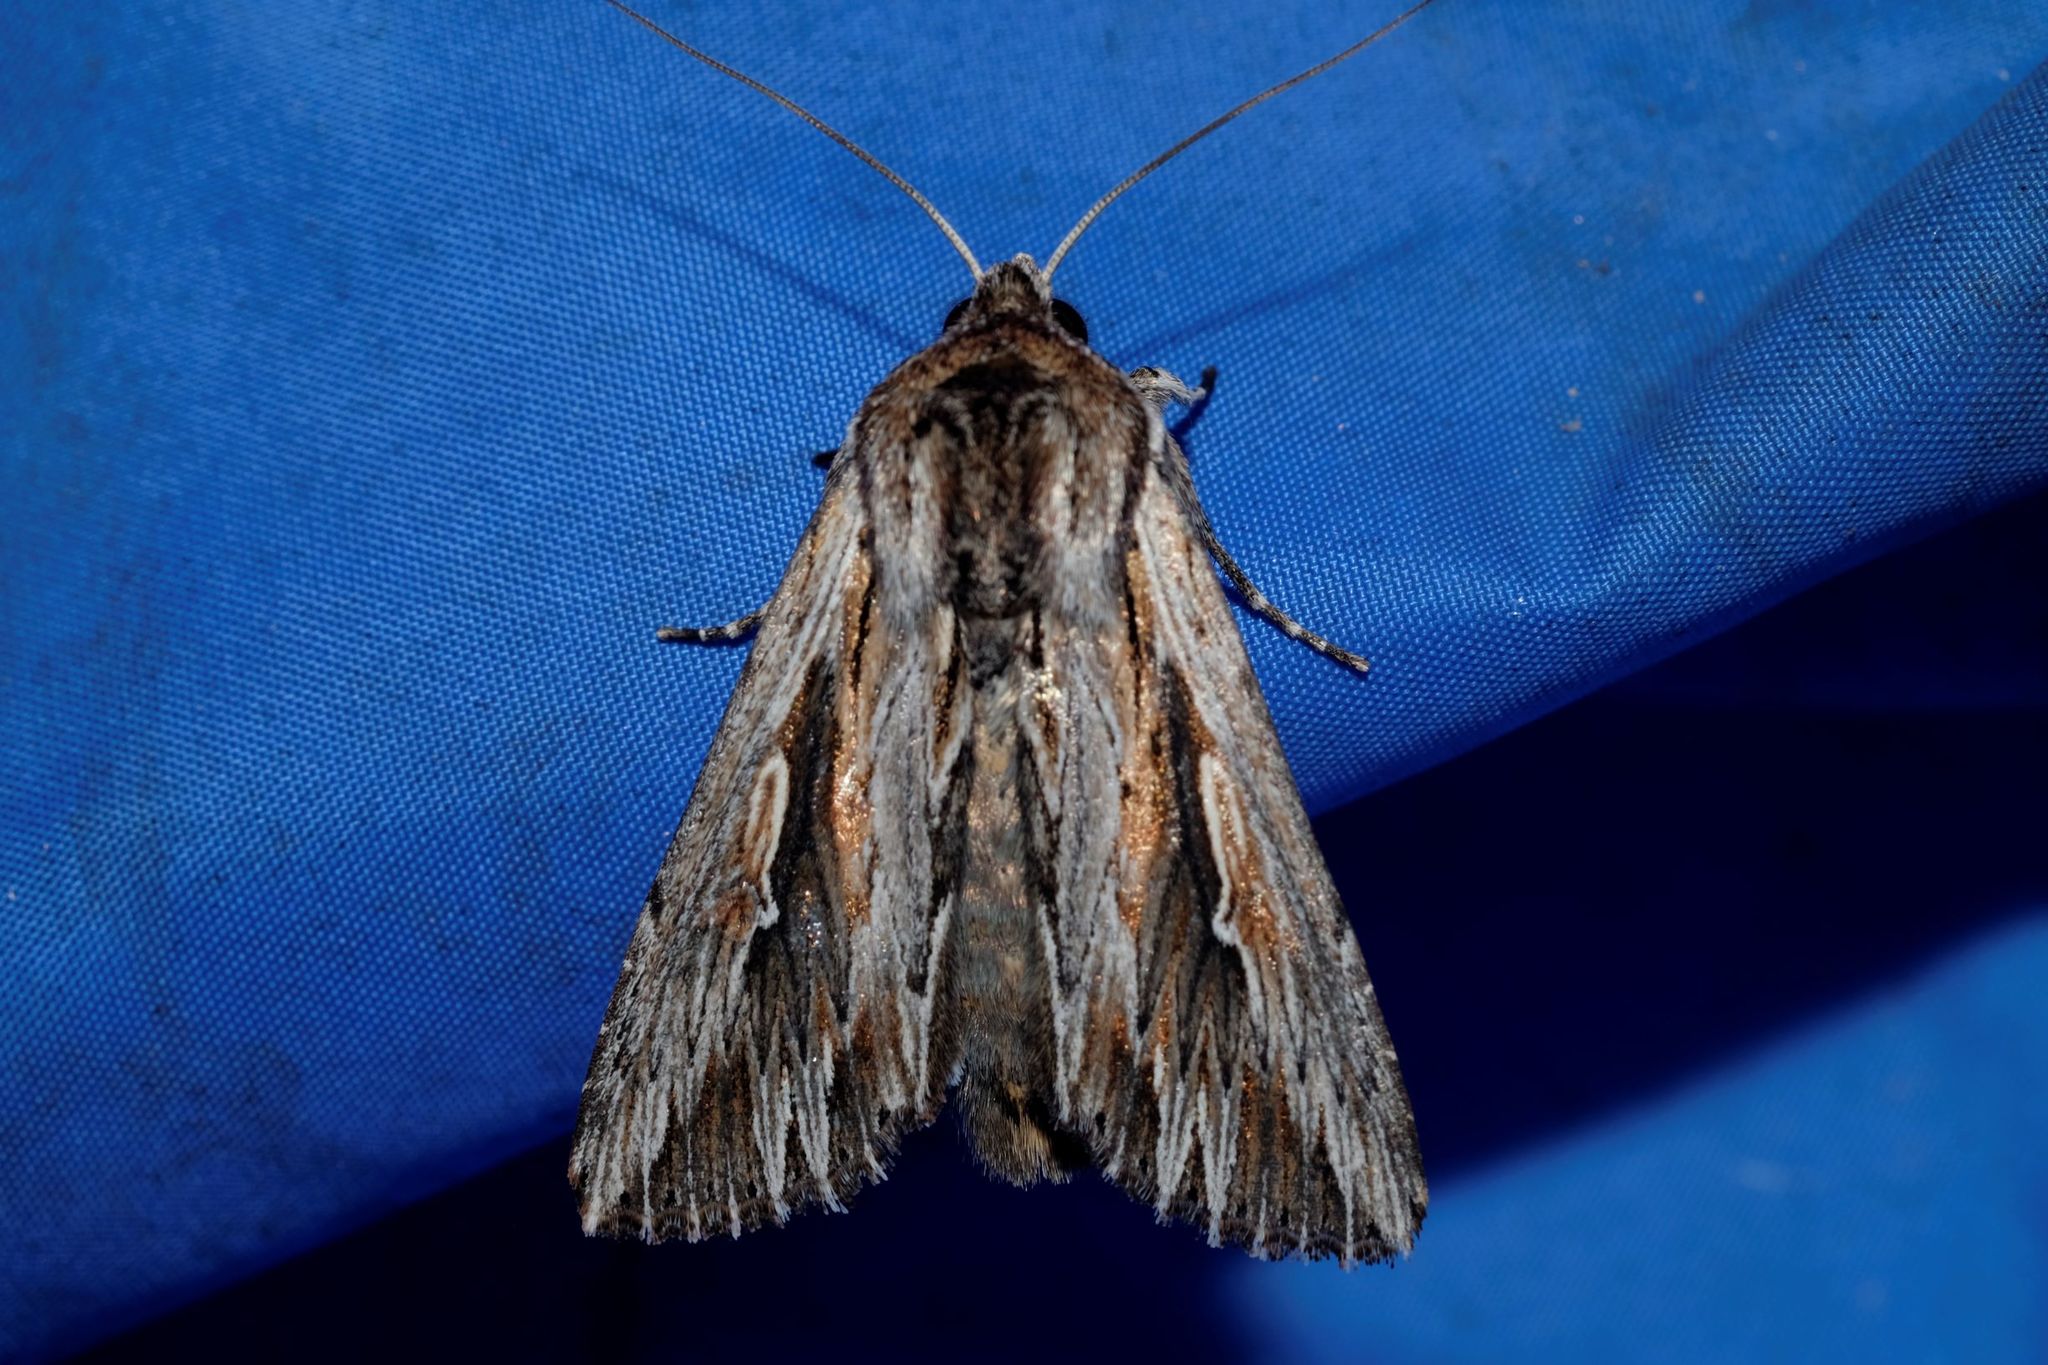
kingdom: Animalia
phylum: Arthropoda
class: Insecta
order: Lepidoptera
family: Noctuidae
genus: Persectania
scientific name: Persectania ewingii
